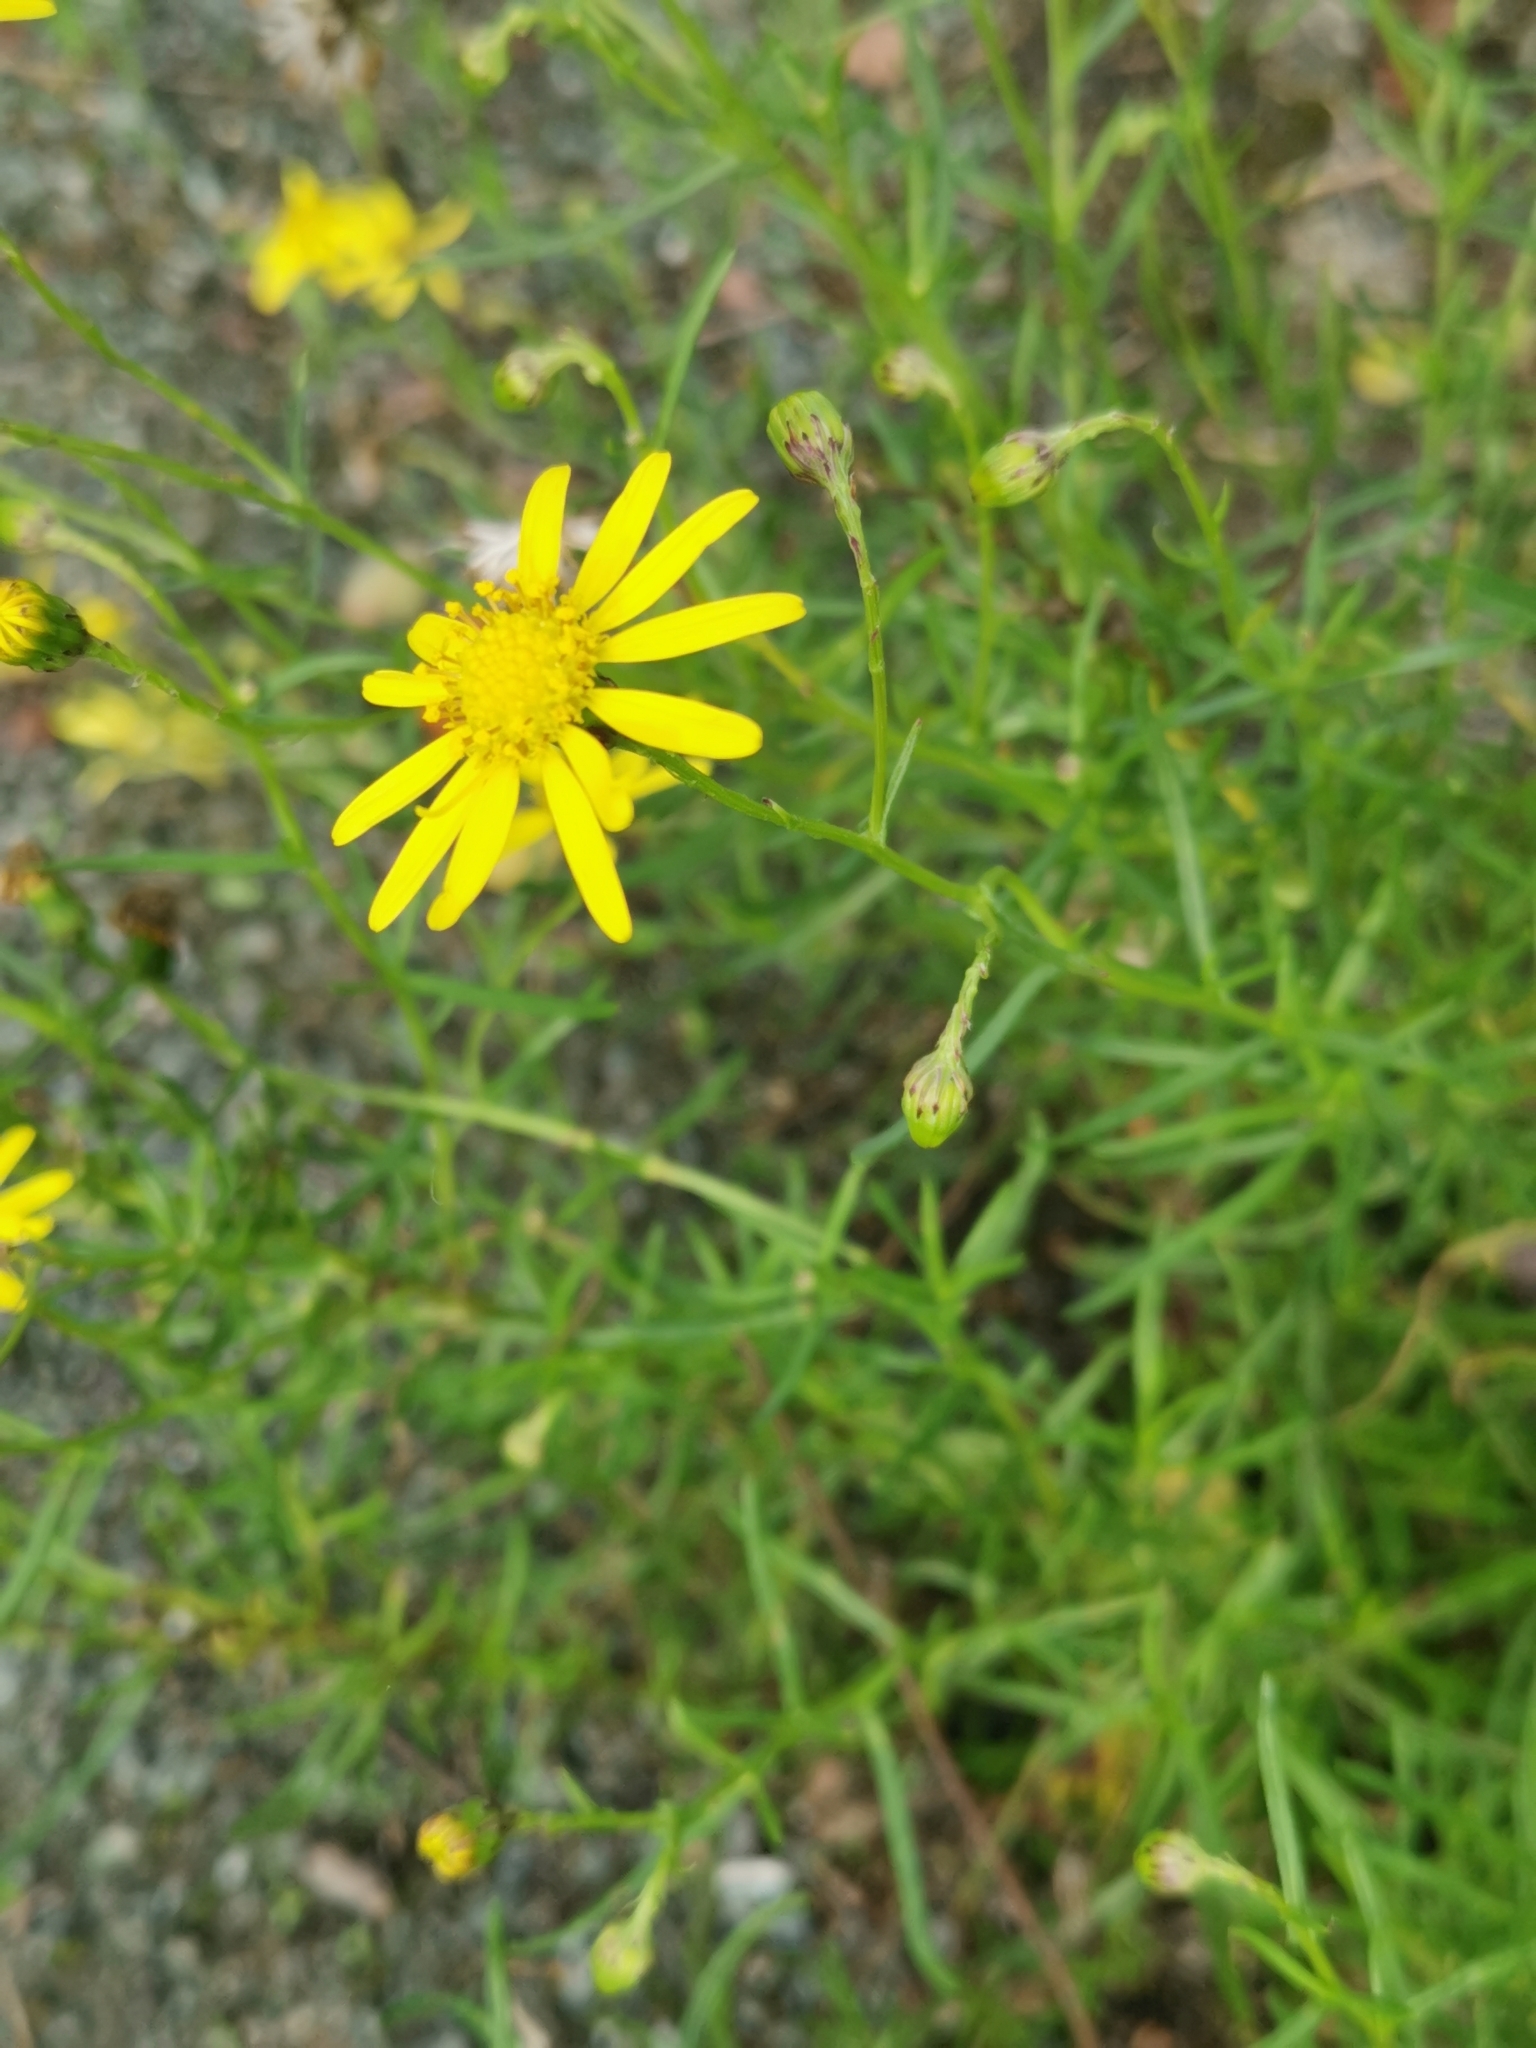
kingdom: Plantae
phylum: Tracheophyta
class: Magnoliopsida
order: Asterales
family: Asteraceae
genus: Senecio
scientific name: Senecio inaequidens
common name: Narrow-leaved ragwort
